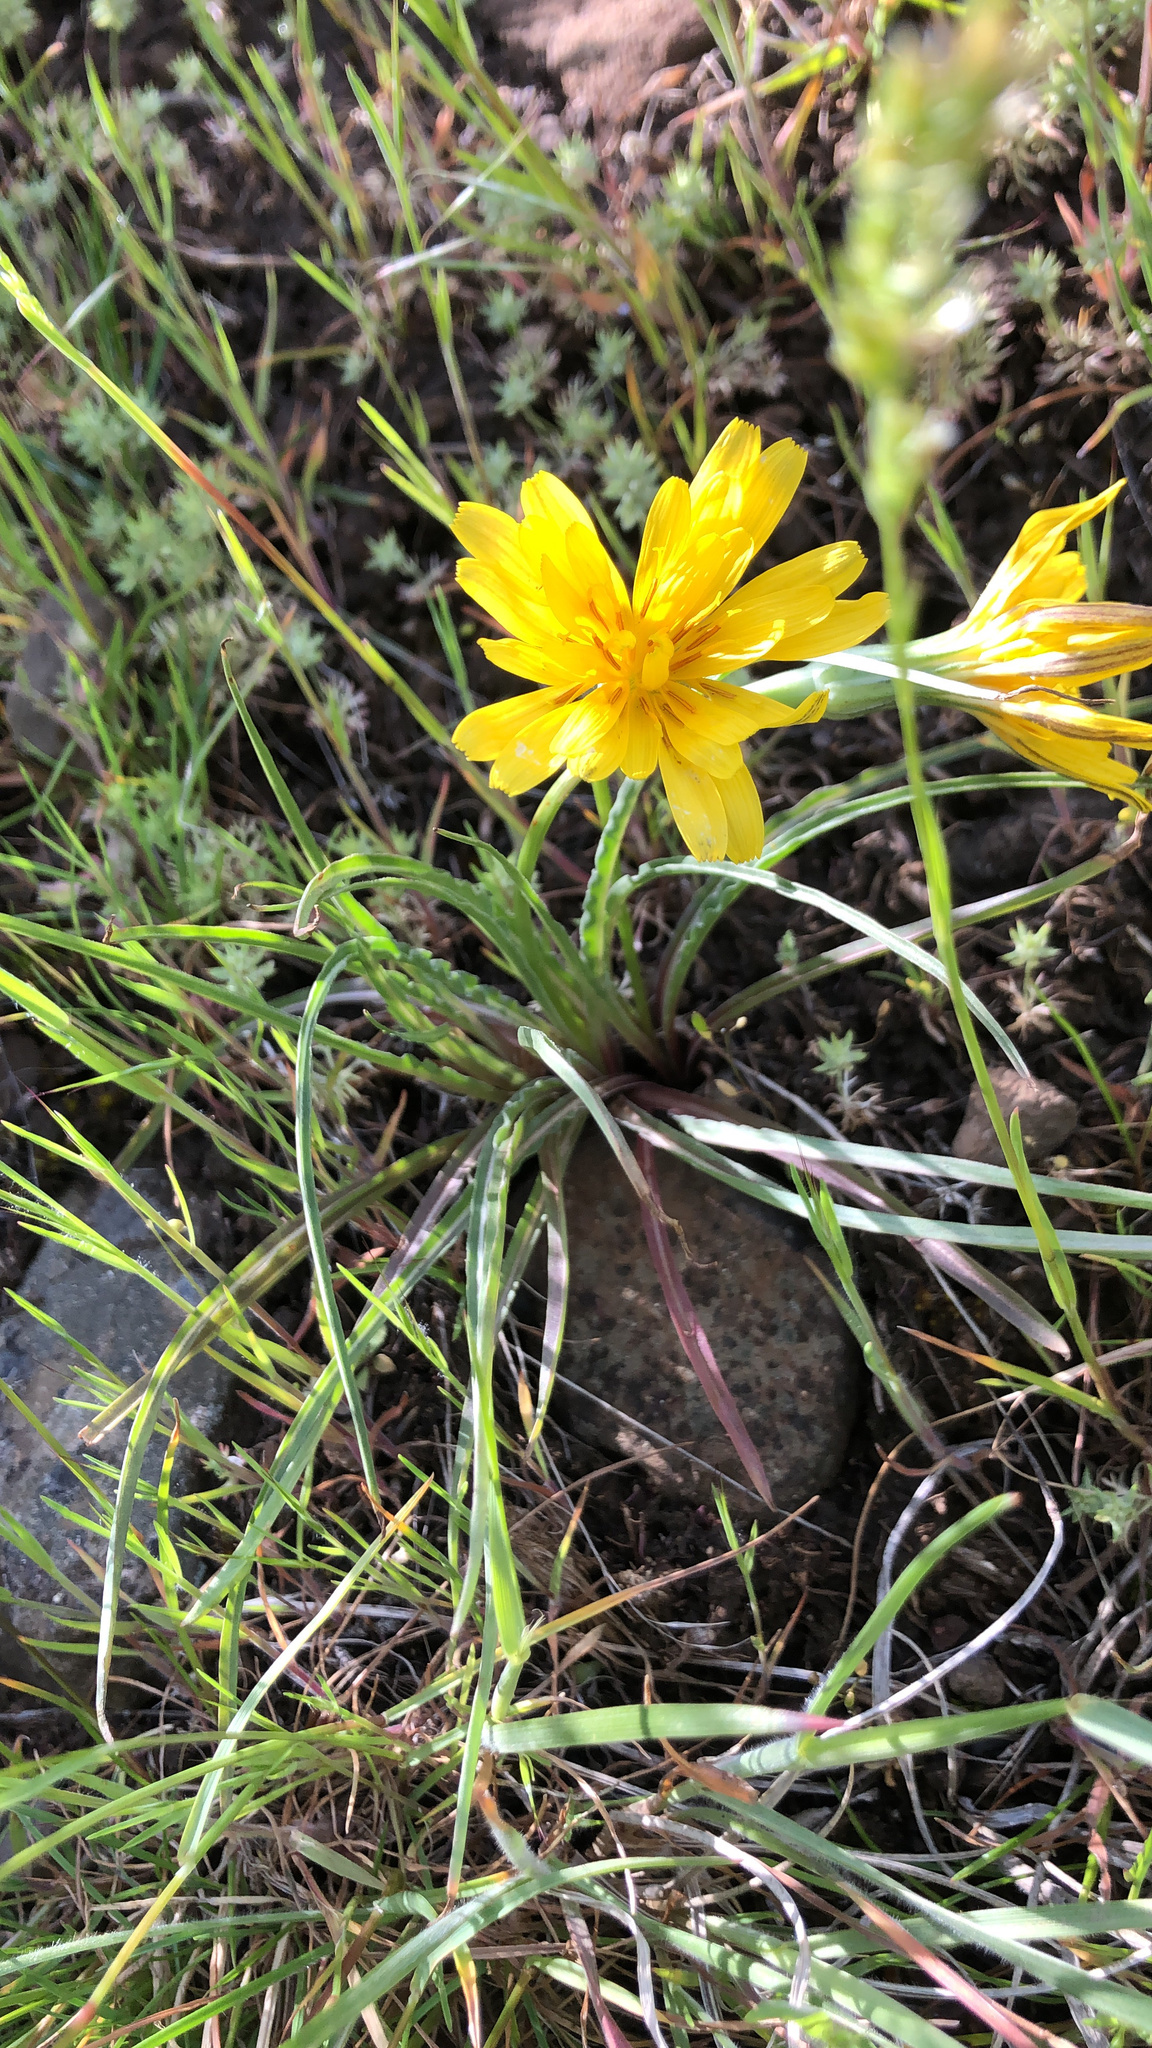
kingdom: Plantae
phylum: Tracheophyta
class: Magnoliopsida
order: Asterales
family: Asteraceae
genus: Microseris
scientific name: Microseris troximoides
